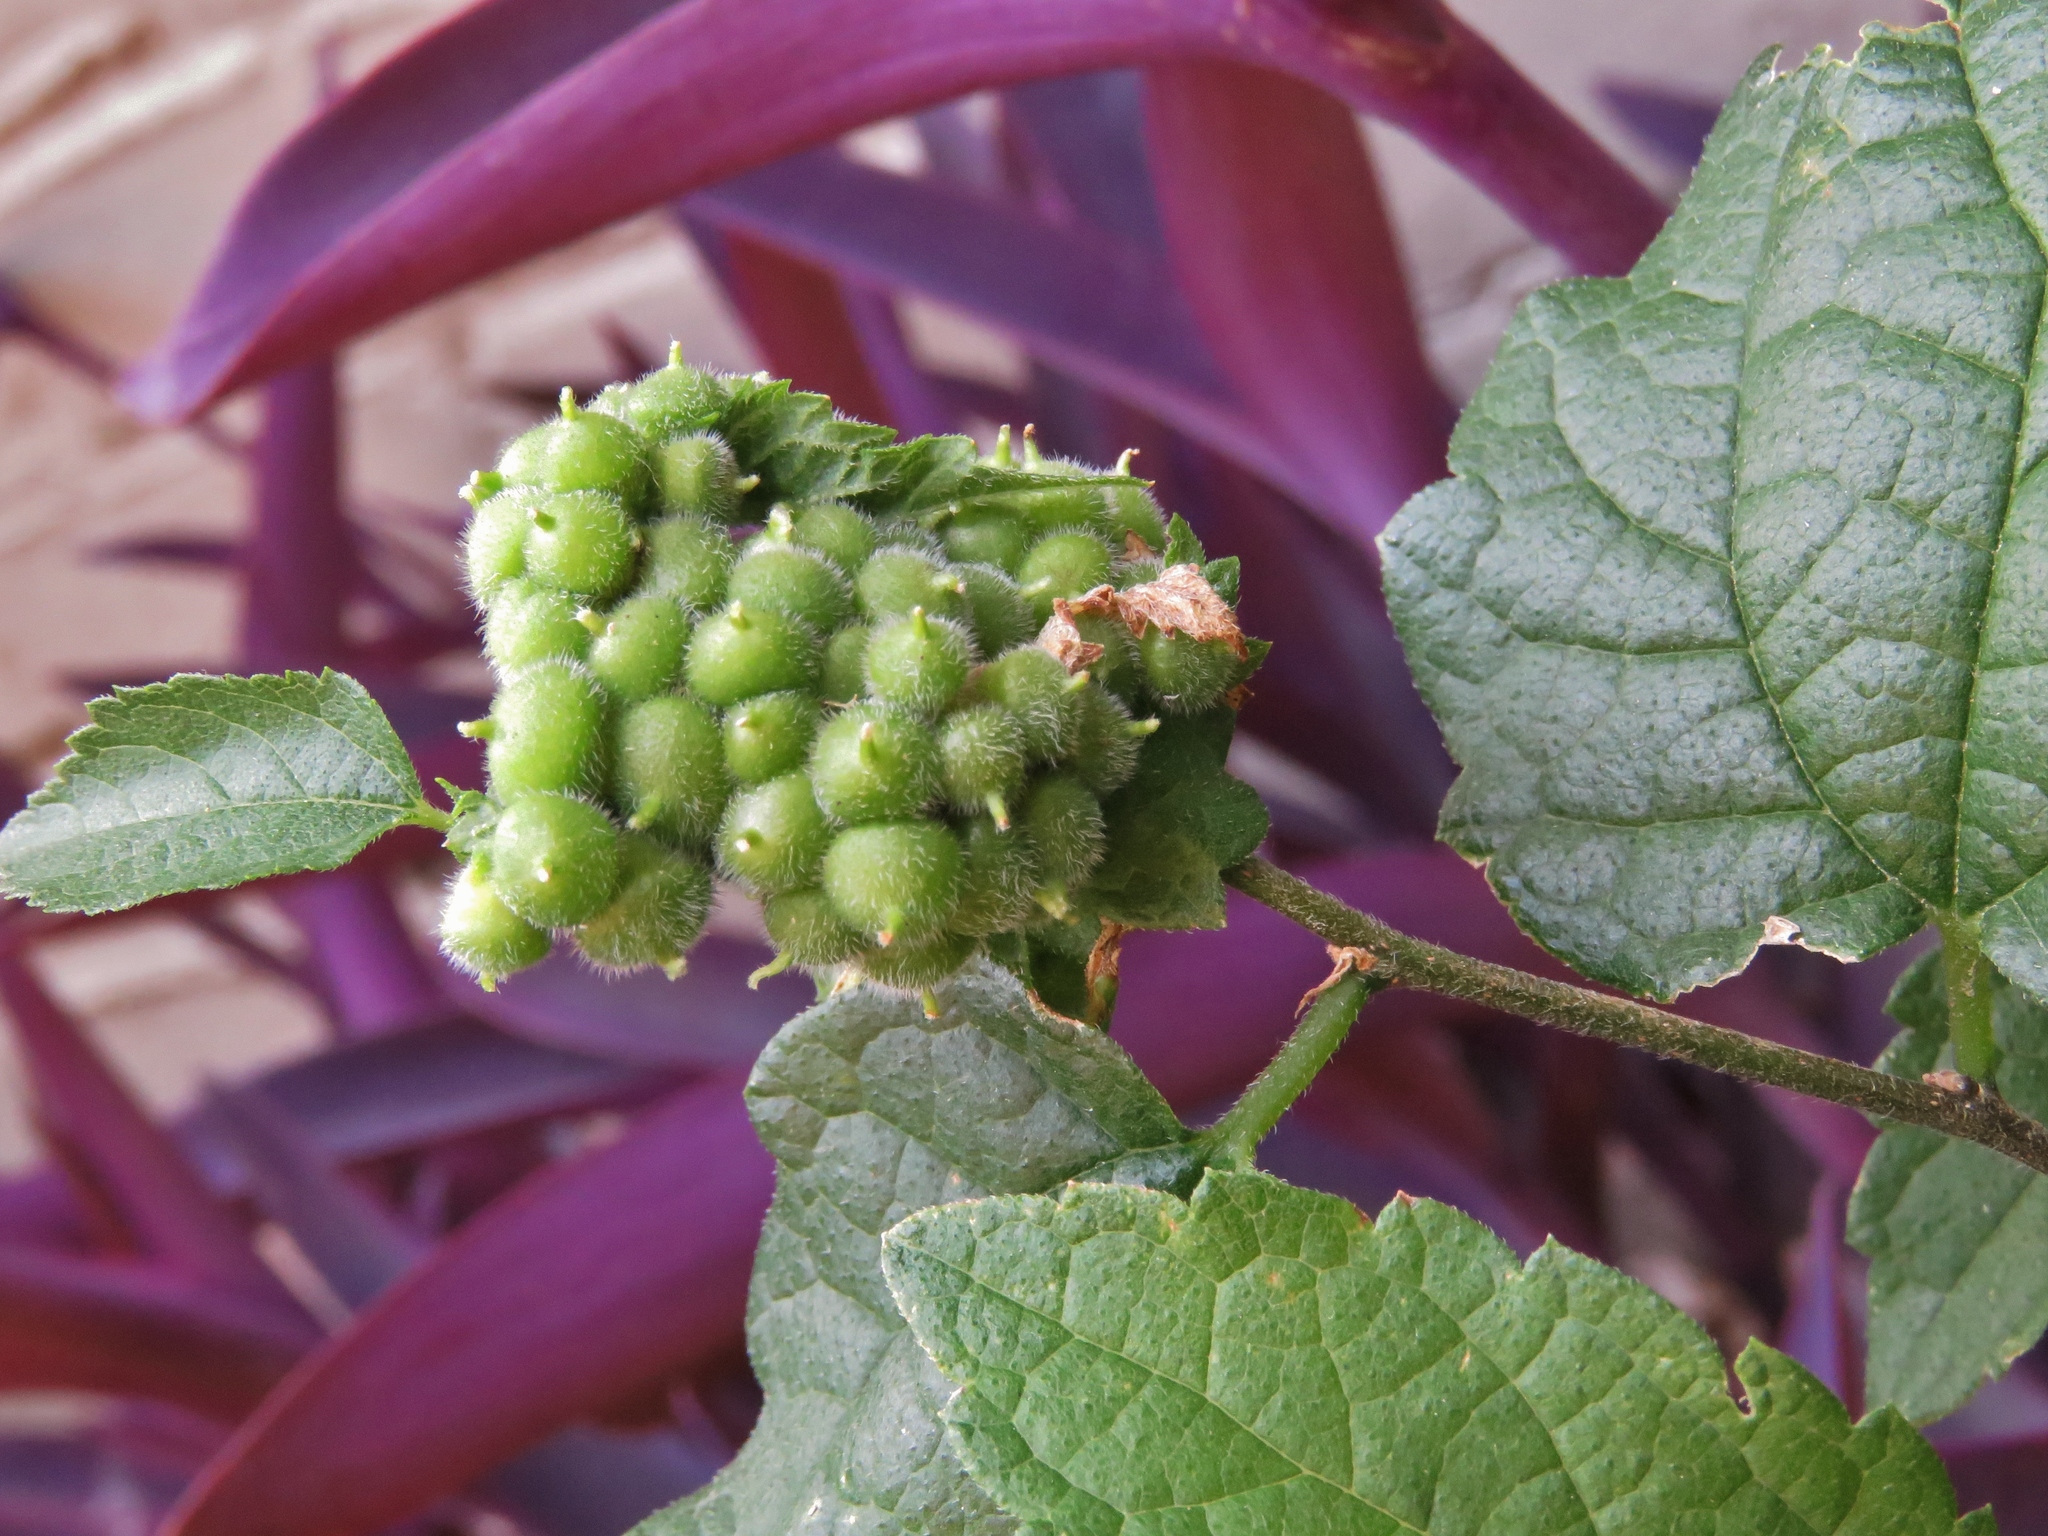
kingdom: Animalia
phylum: Arthropoda
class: Insecta
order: Diptera
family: Cecidomyiidae
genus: Celticecis
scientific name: Celticecis celtiphyllia
